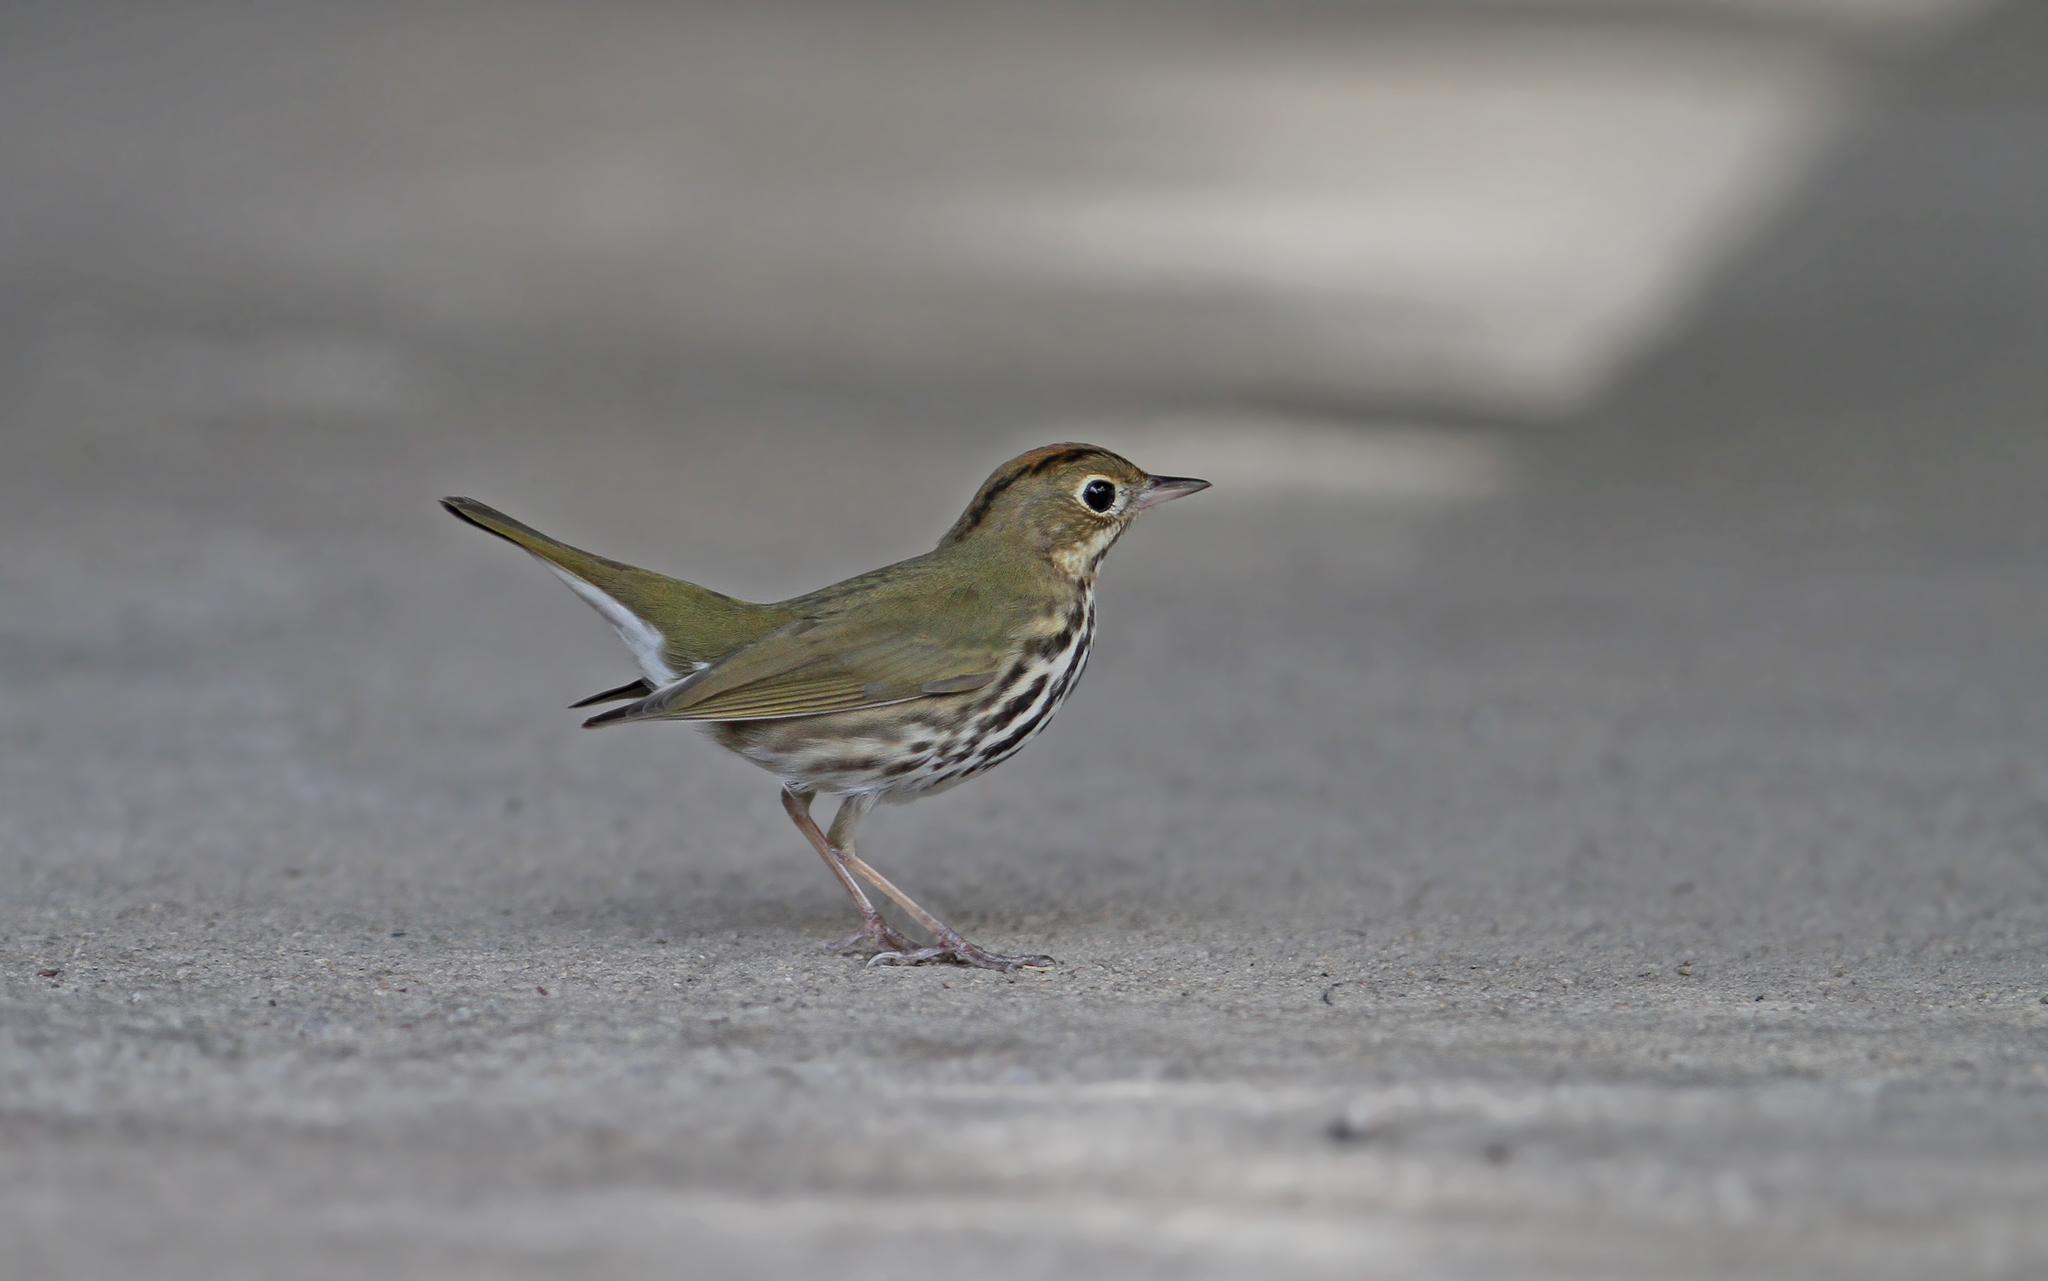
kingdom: Animalia
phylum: Chordata
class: Aves
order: Passeriformes
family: Parulidae
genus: Seiurus
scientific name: Seiurus aurocapilla
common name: Ovenbird
